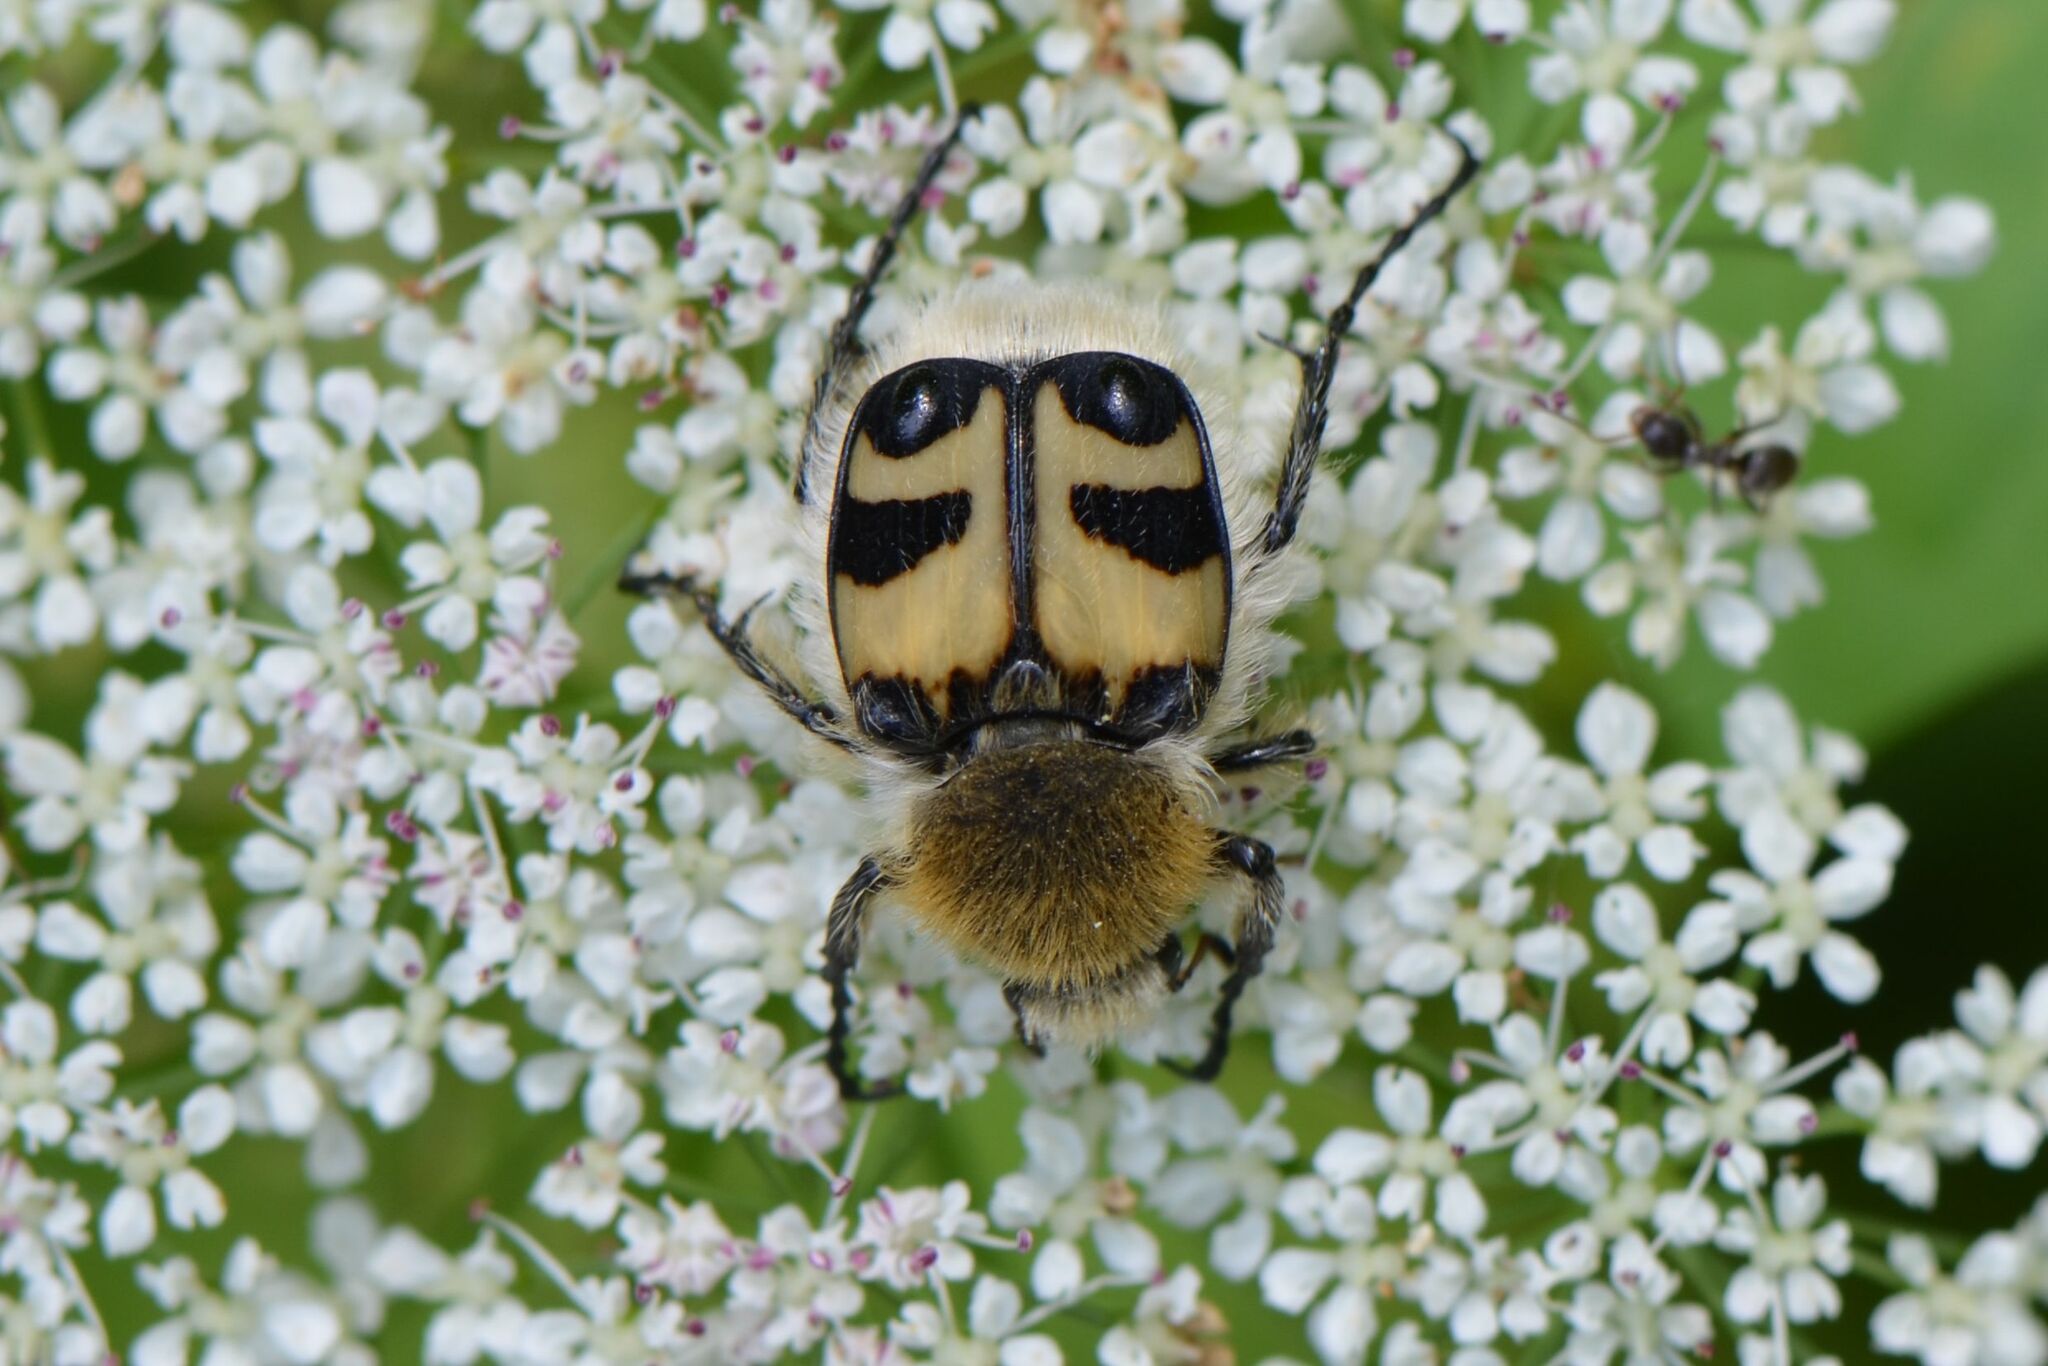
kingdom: Animalia
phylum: Arthropoda
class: Insecta
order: Coleoptera
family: Scarabaeidae
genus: Trichius
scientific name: Trichius fasciatus
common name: Bee beetle
